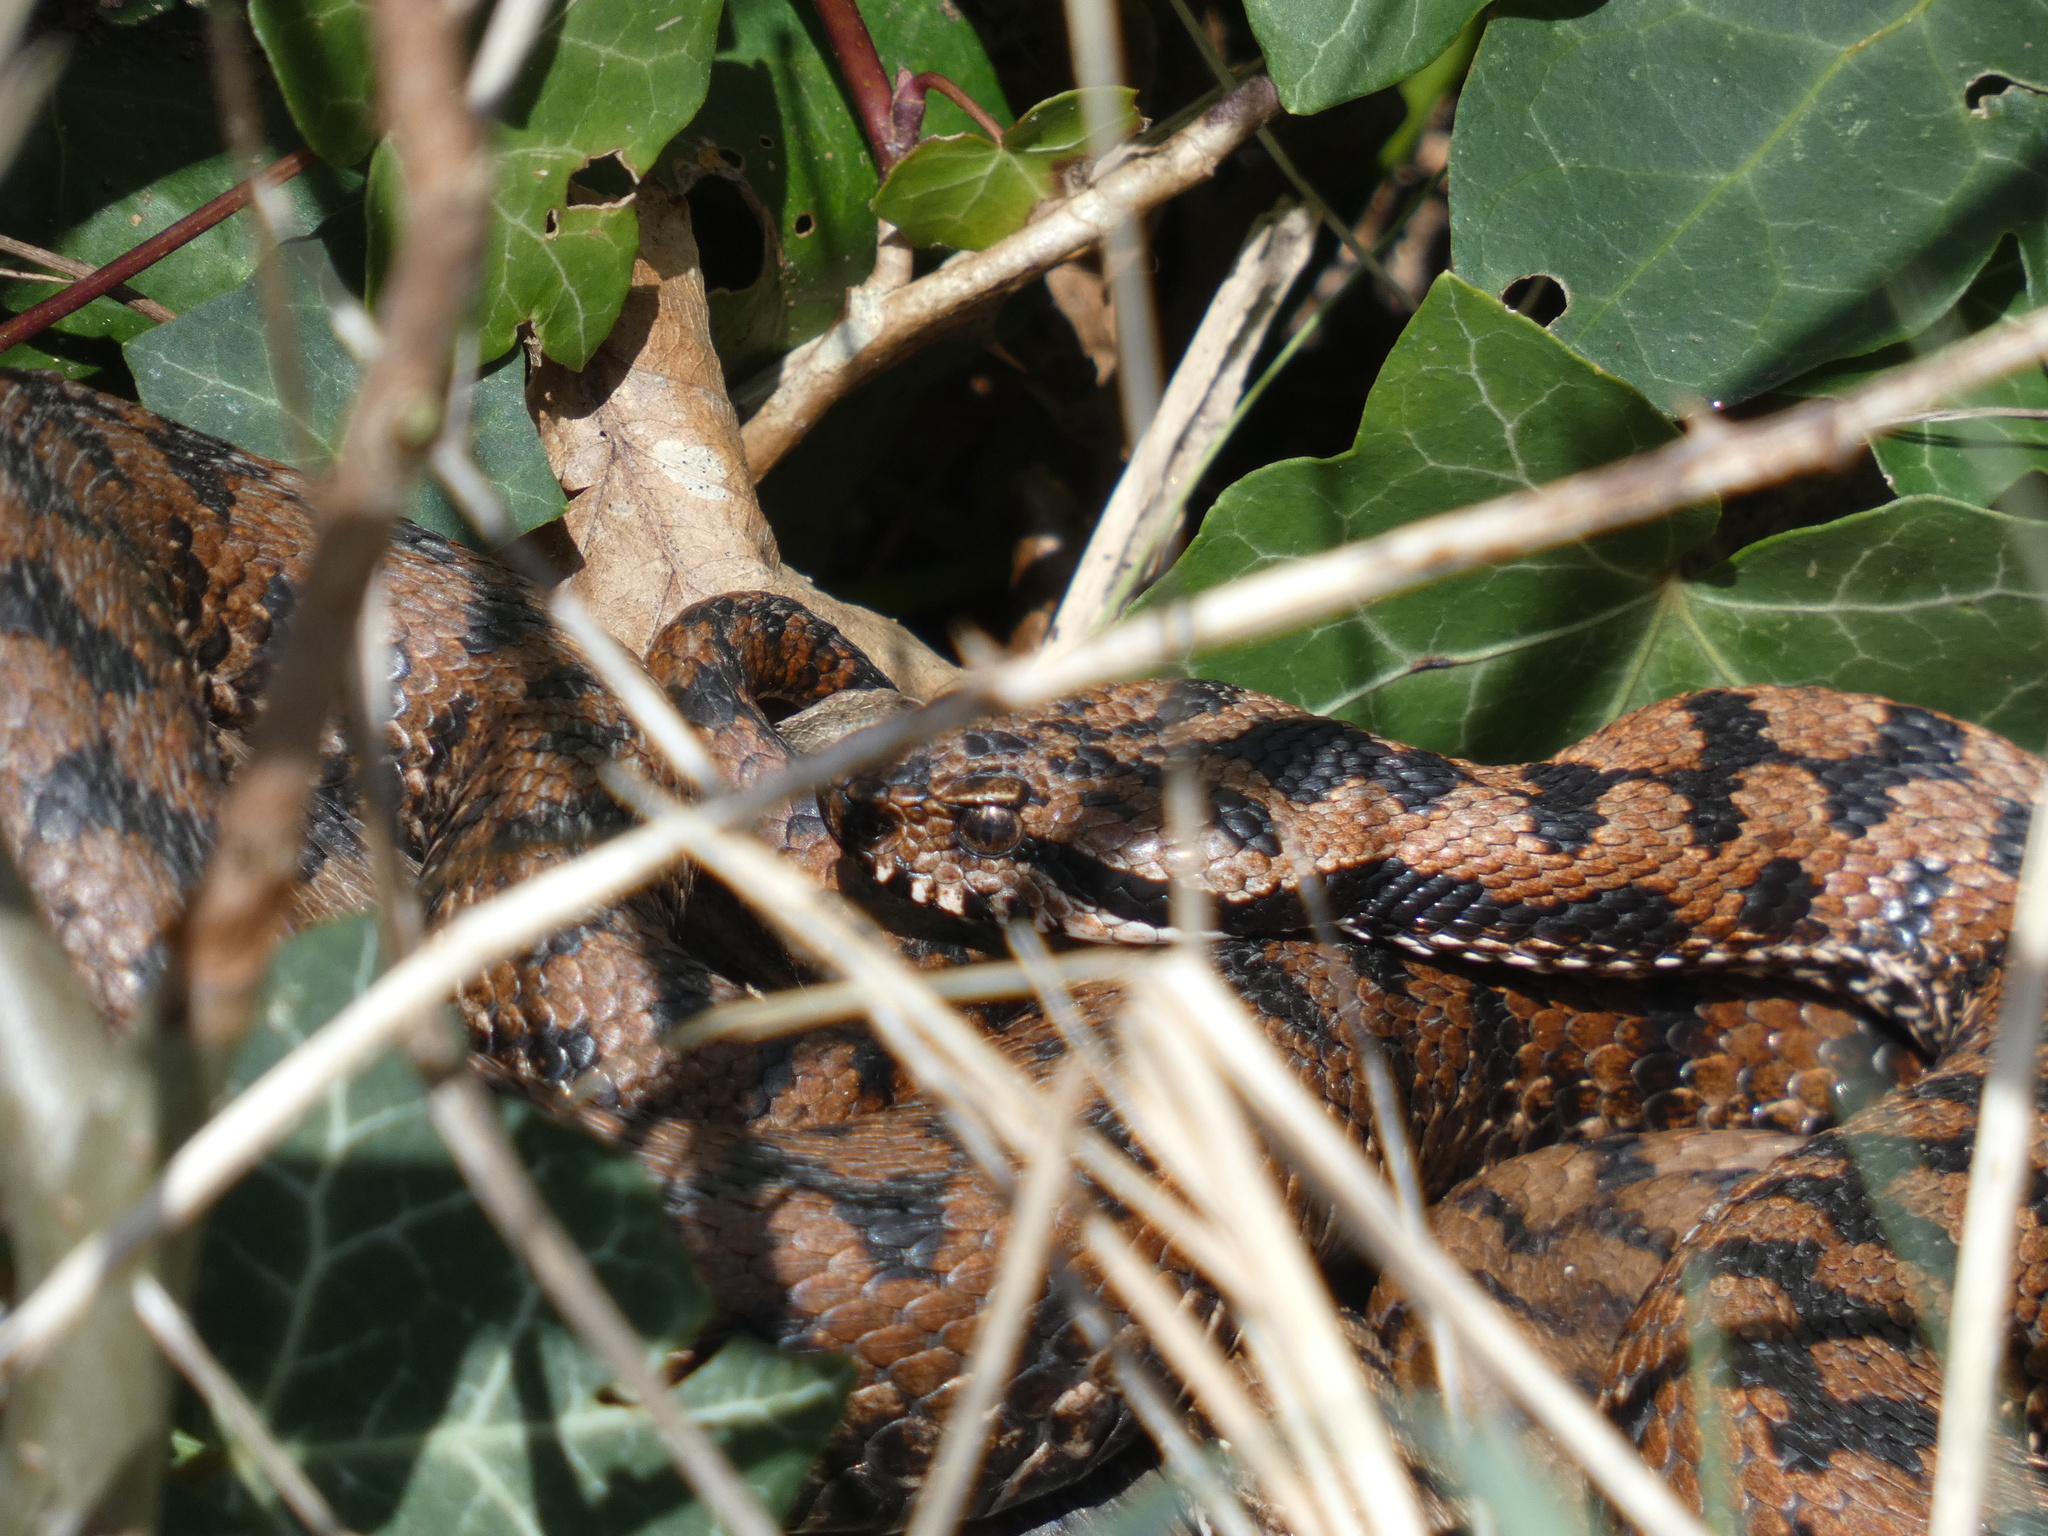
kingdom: Animalia
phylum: Chordata
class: Squamata
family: Viperidae
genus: Vipera
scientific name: Vipera aspis
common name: Asp viper
